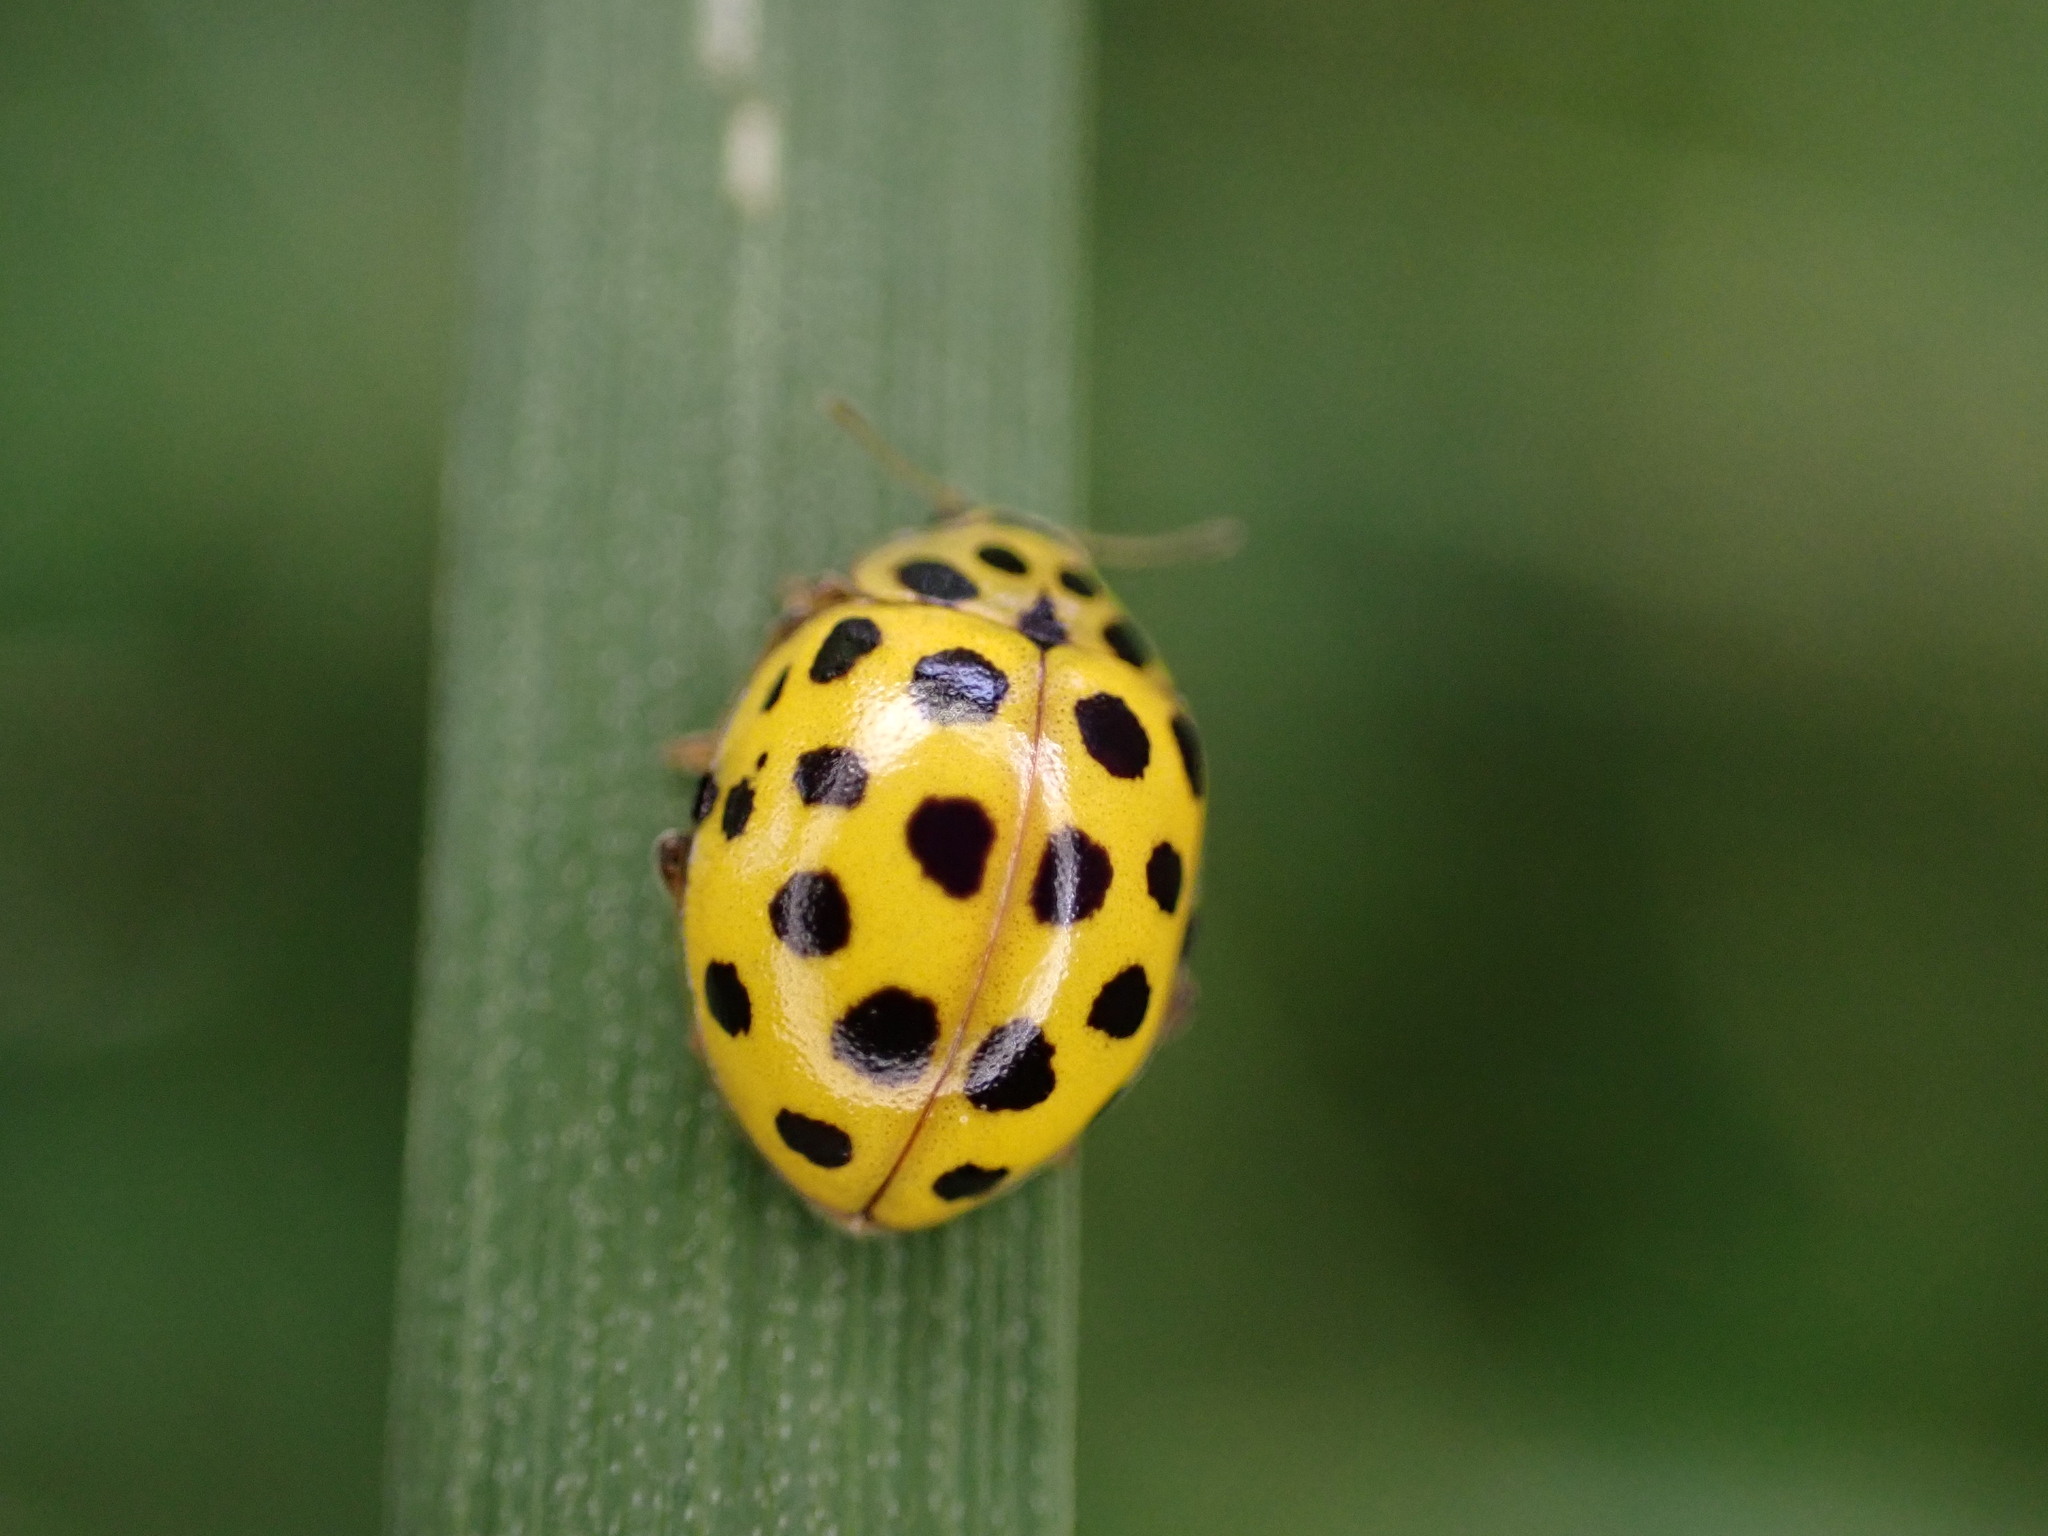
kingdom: Animalia
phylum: Arthropoda
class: Insecta
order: Coleoptera
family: Coccinellidae
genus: Psyllobora
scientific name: Psyllobora vigintiduopunctata
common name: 22-spot ladybird
